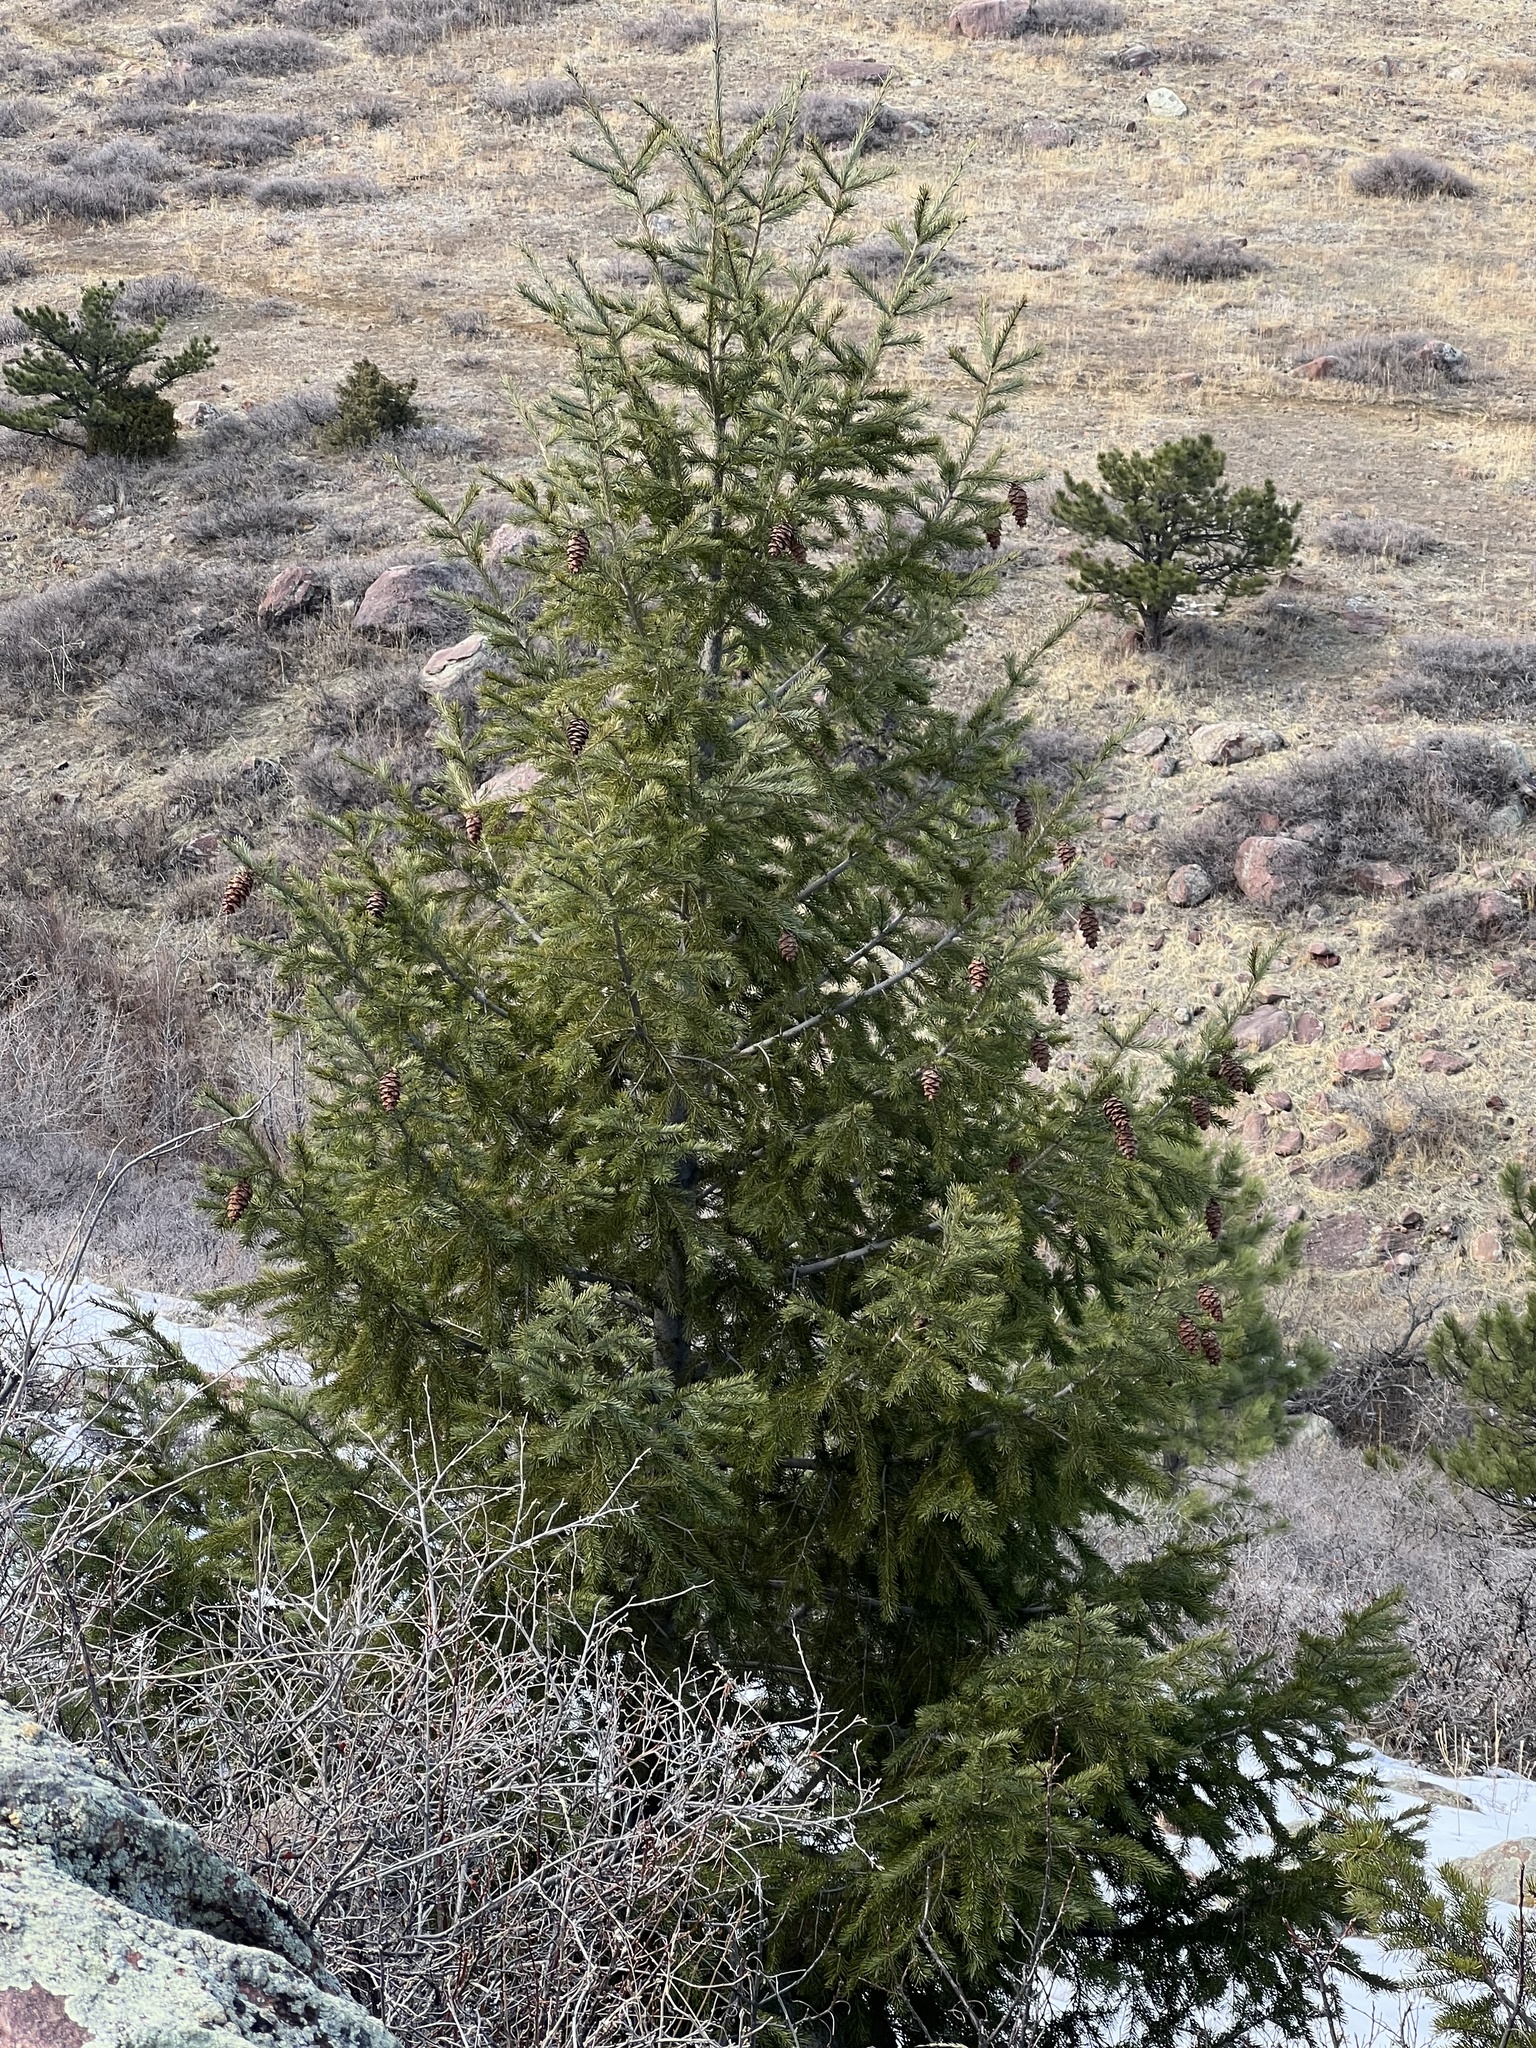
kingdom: Plantae
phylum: Tracheophyta
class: Pinopsida
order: Pinales
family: Pinaceae
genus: Pseudotsuga
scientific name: Pseudotsuga menziesii
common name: Douglas fir
